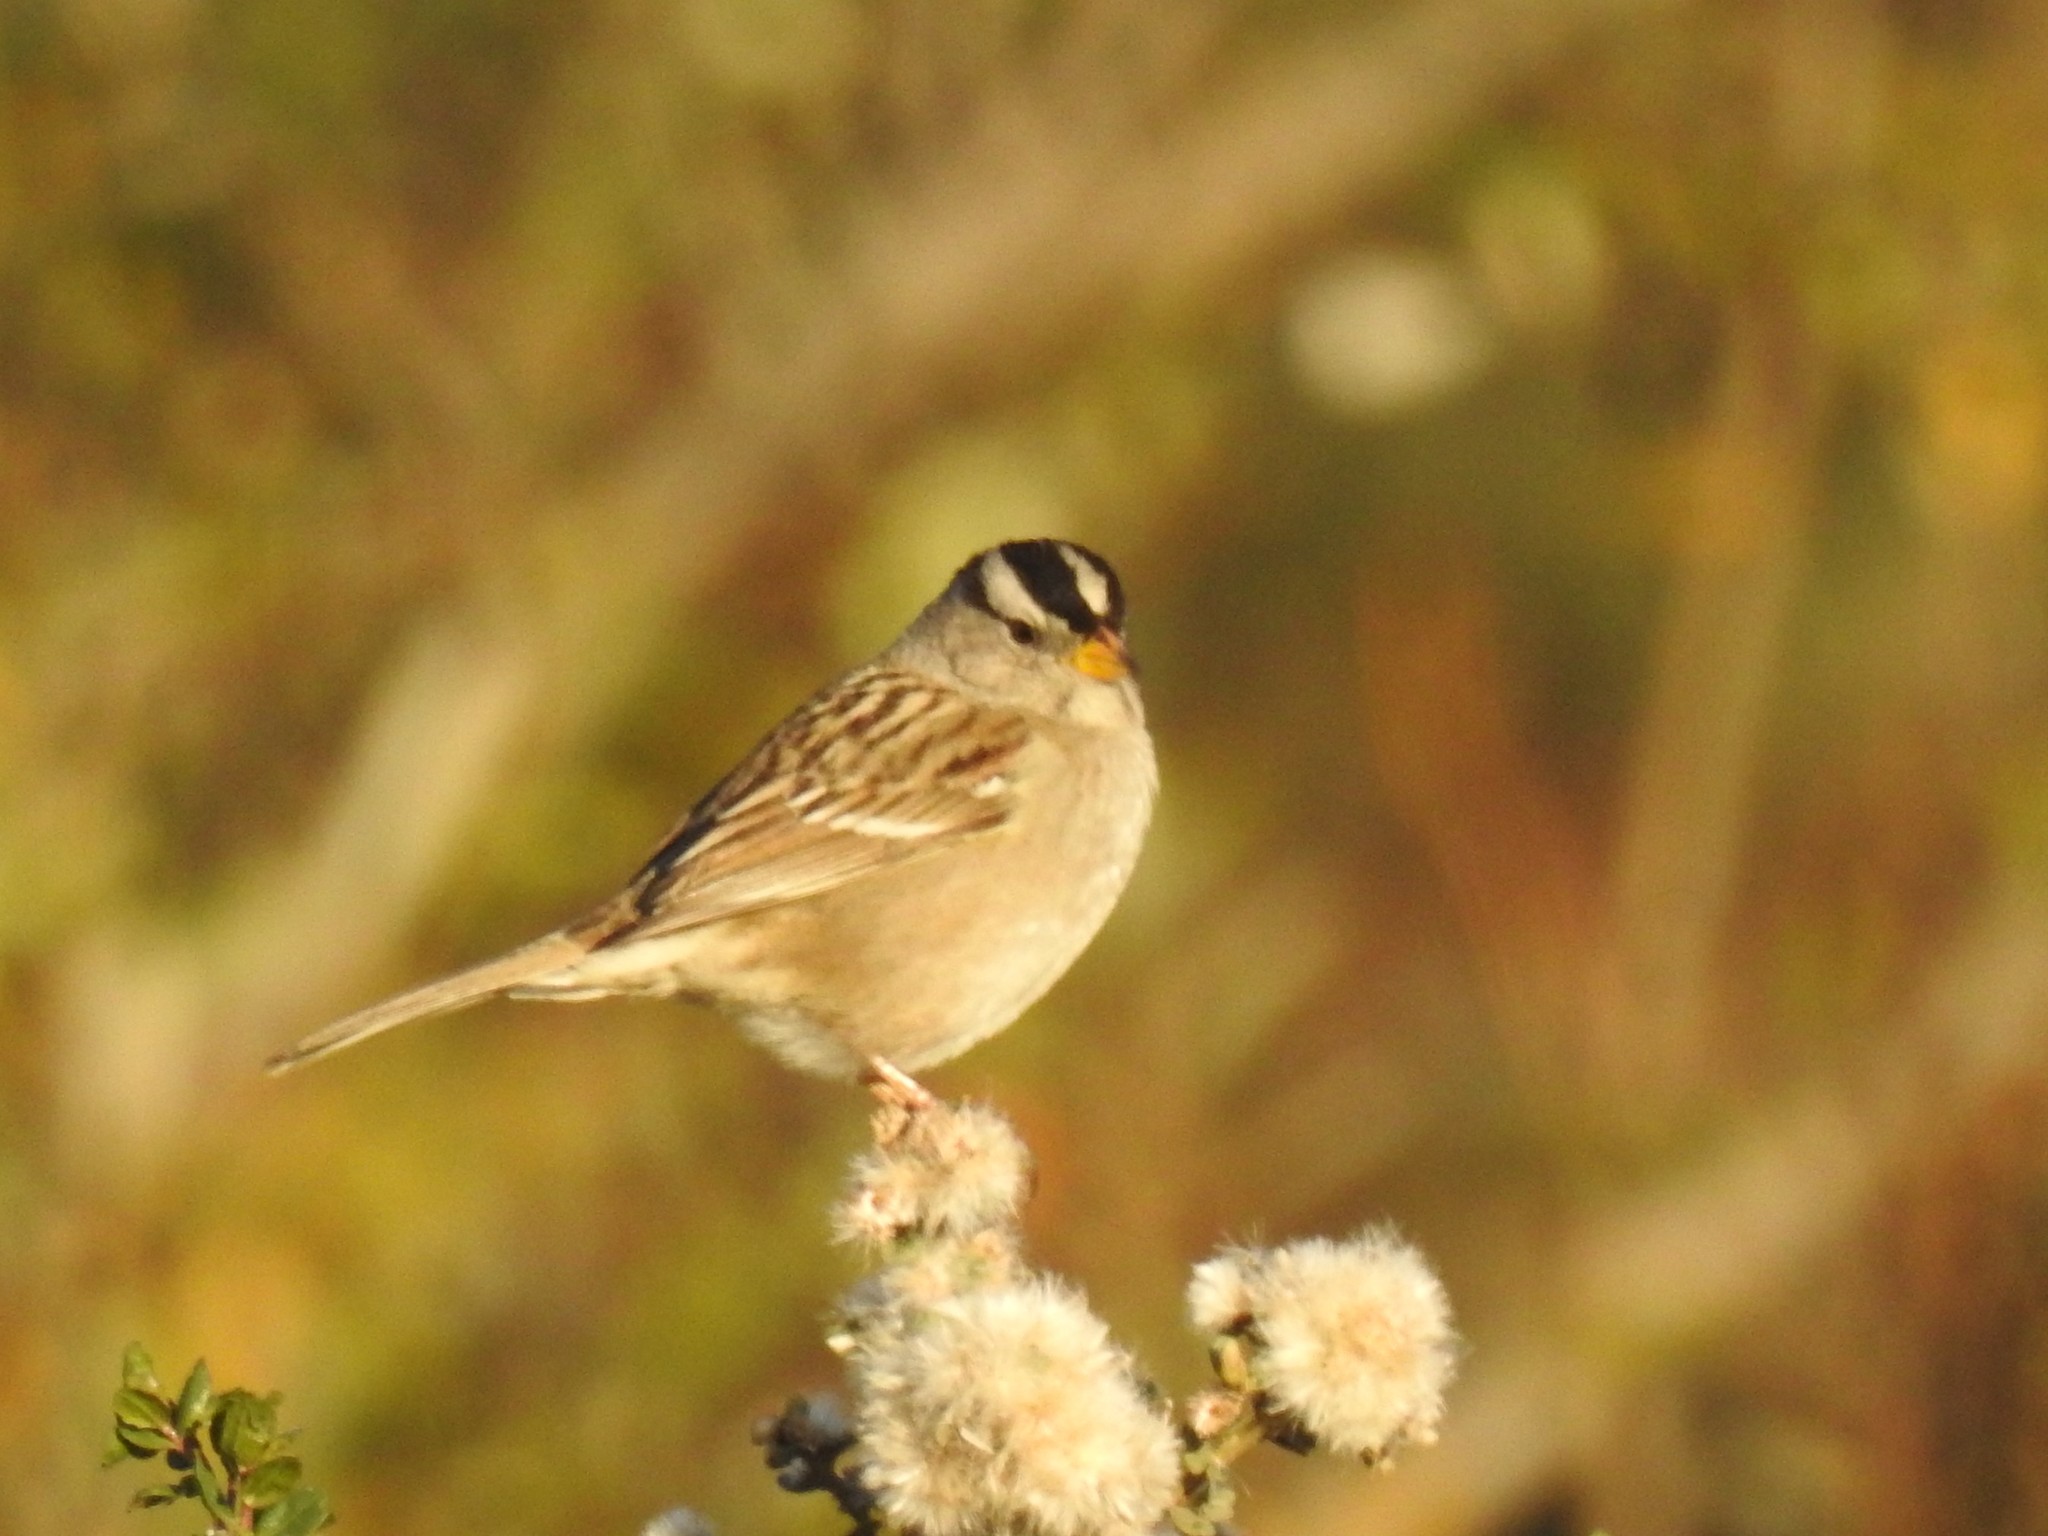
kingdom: Animalia
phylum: Chordata
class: Aves
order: Passeriformes
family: Passerellidae
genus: Zonotrichia
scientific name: Zonotrichia leucophrys
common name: White-crowned sparrow
